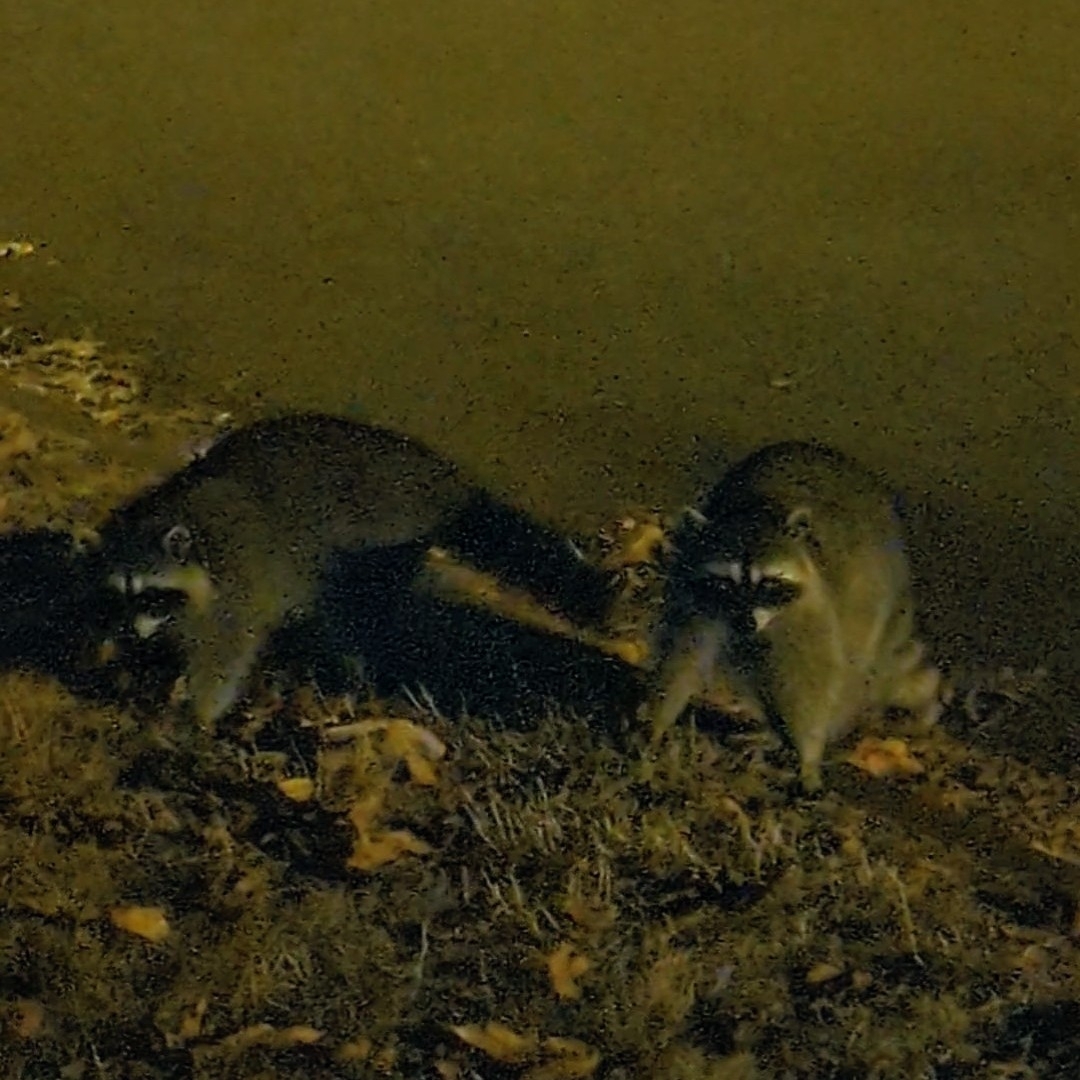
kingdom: Animalia
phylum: Chordata
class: Mammalia
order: Carnivora
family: Procyonidae
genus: Procyon
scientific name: Procyon lotor
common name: Raccoon
